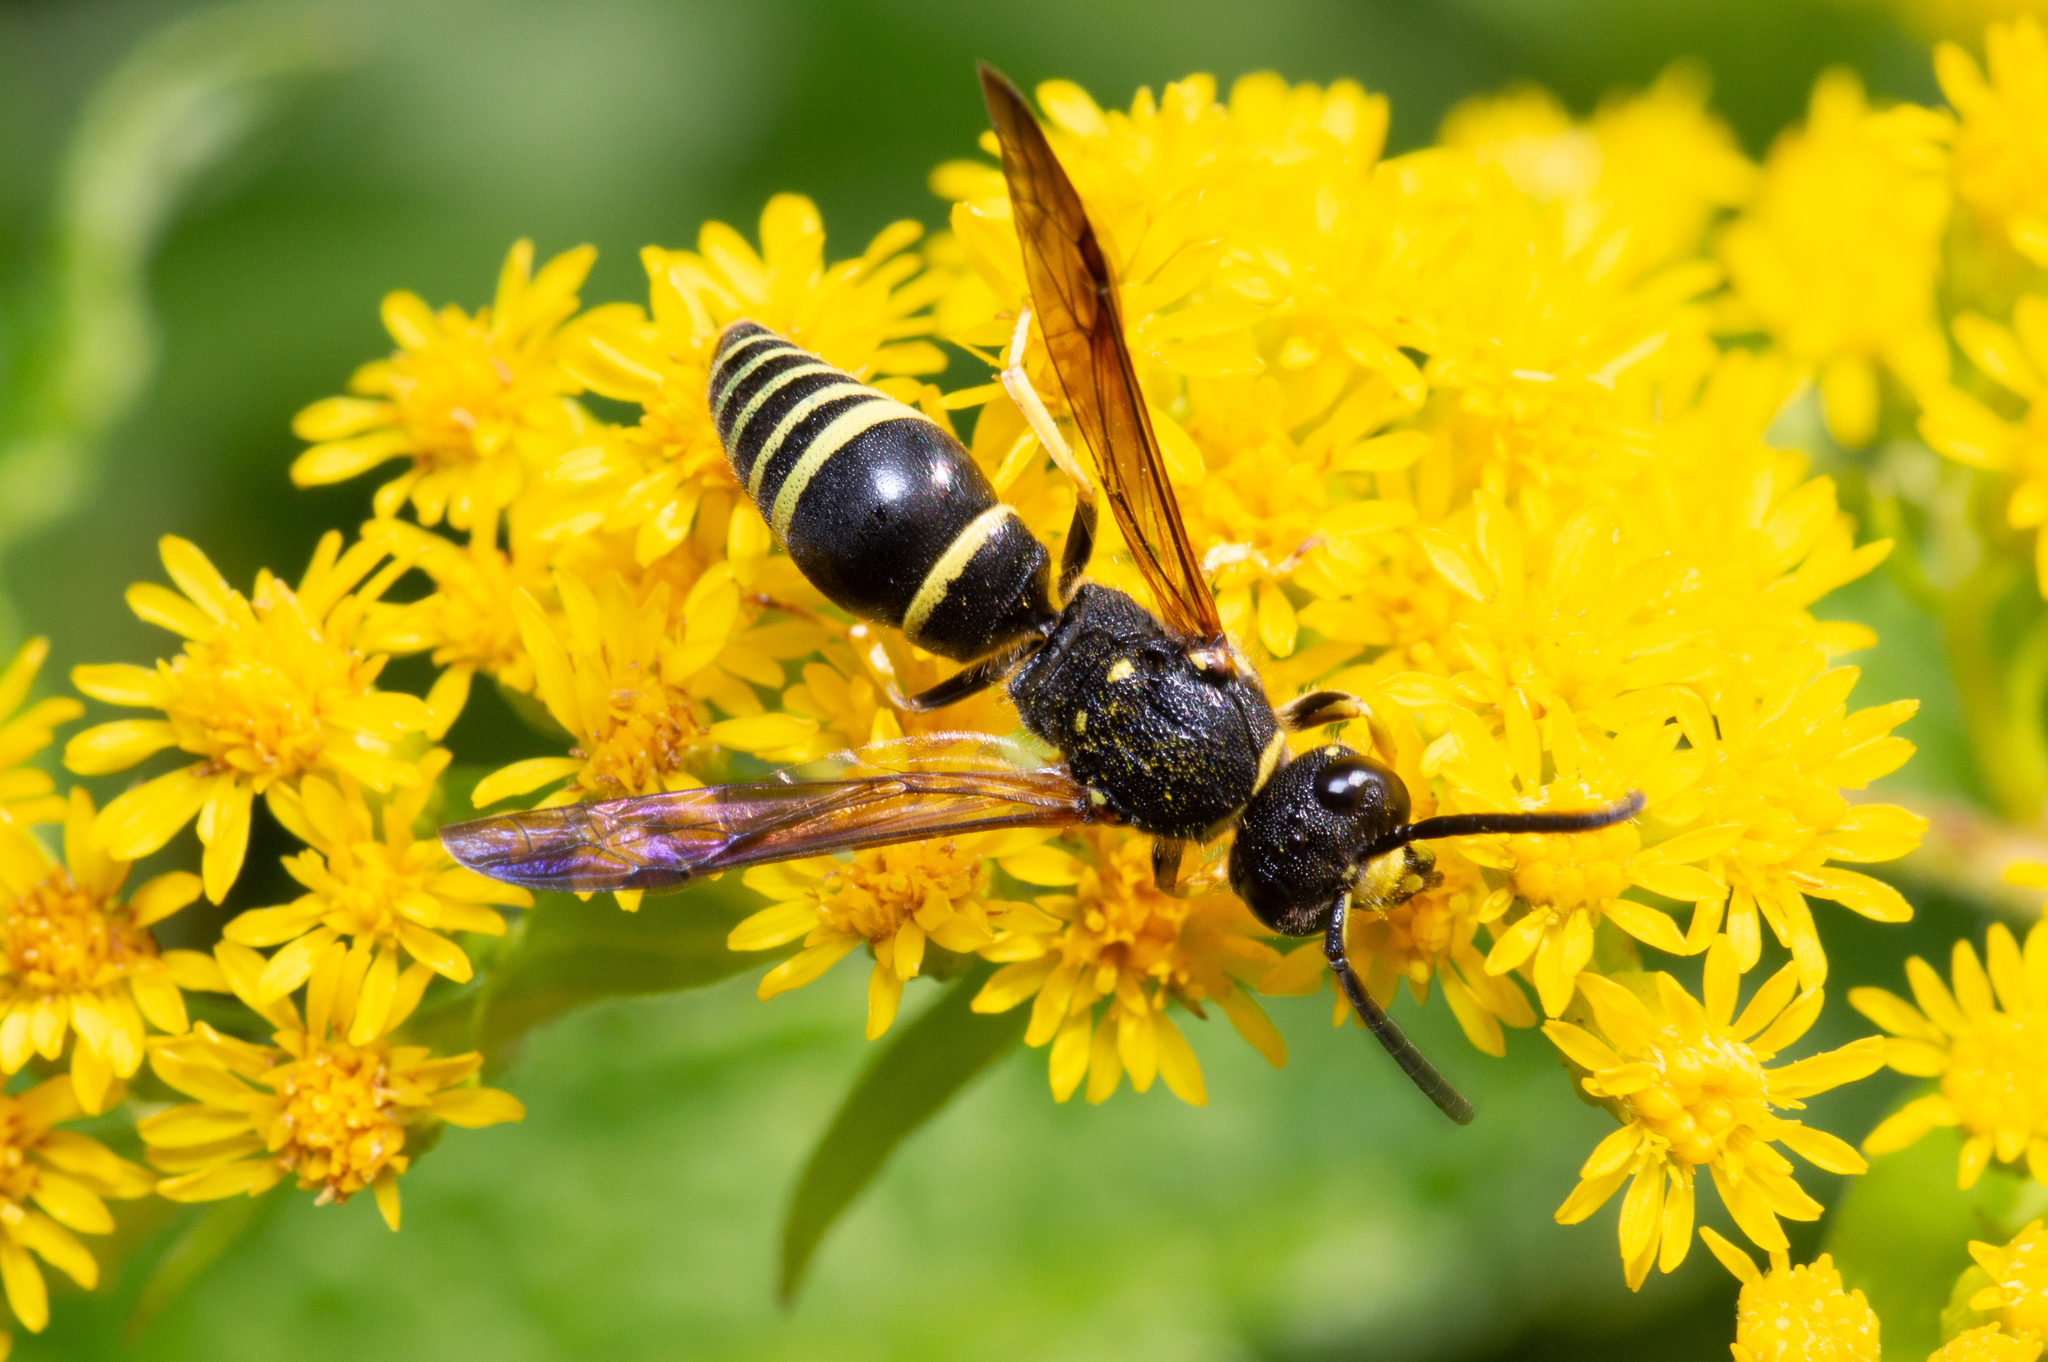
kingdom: Animalia
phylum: Arthropoda
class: Insecta
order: Hymenoptera
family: Vespidae
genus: Ancistrocerus
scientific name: Ancistrocerus
